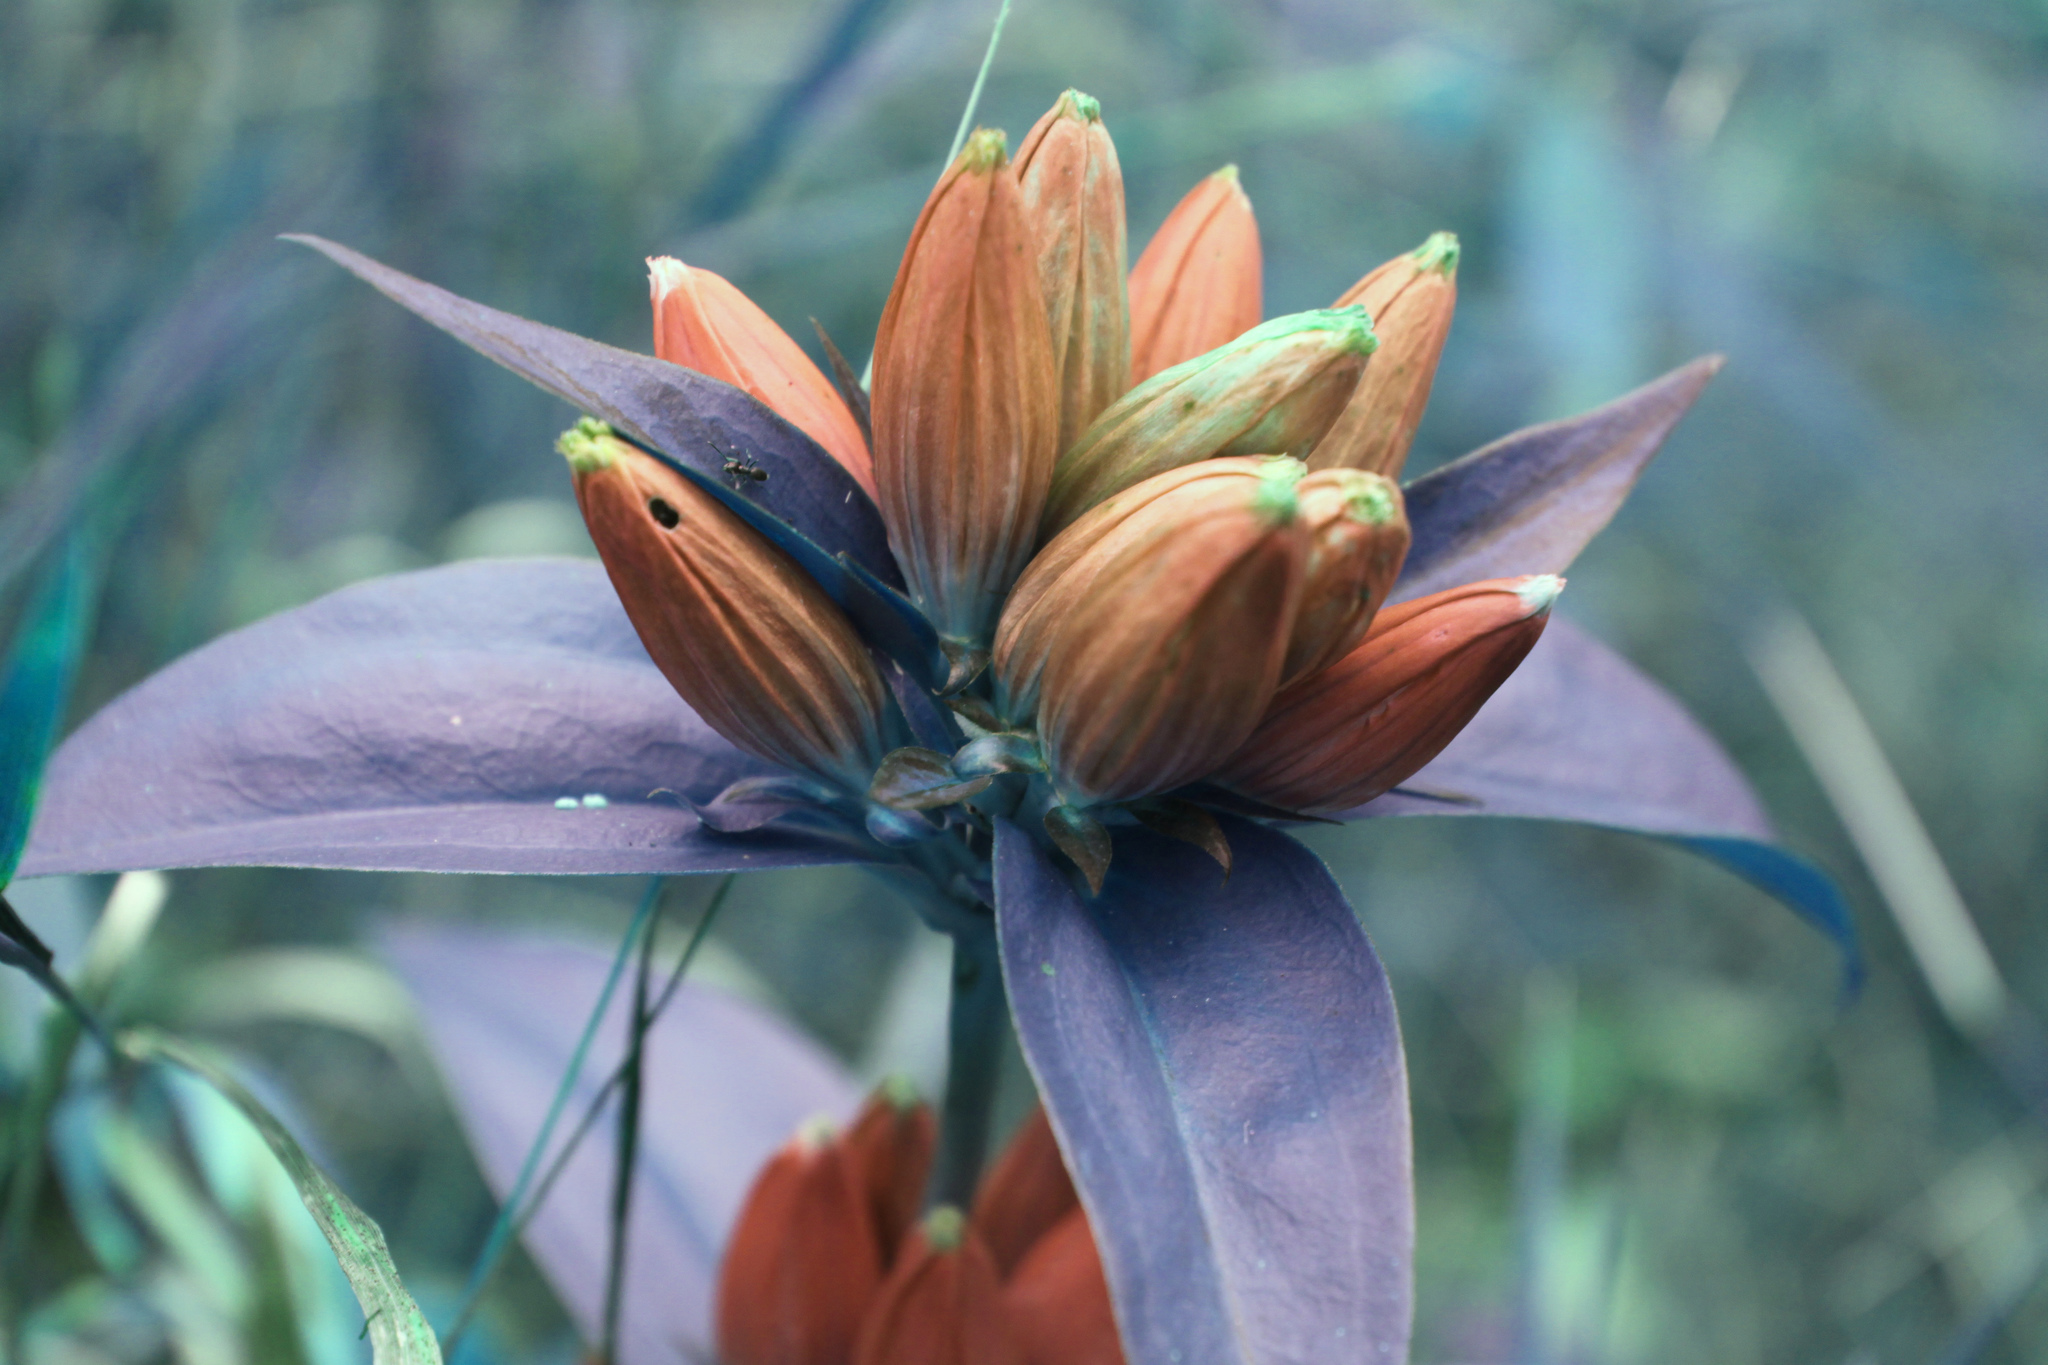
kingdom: Plantae
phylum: Tracheophyta
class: Magnoliopsida
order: Gentianales
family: Gentianaceae
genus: Gentiana
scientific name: Gentiana andrewsii
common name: Bottle gentian
